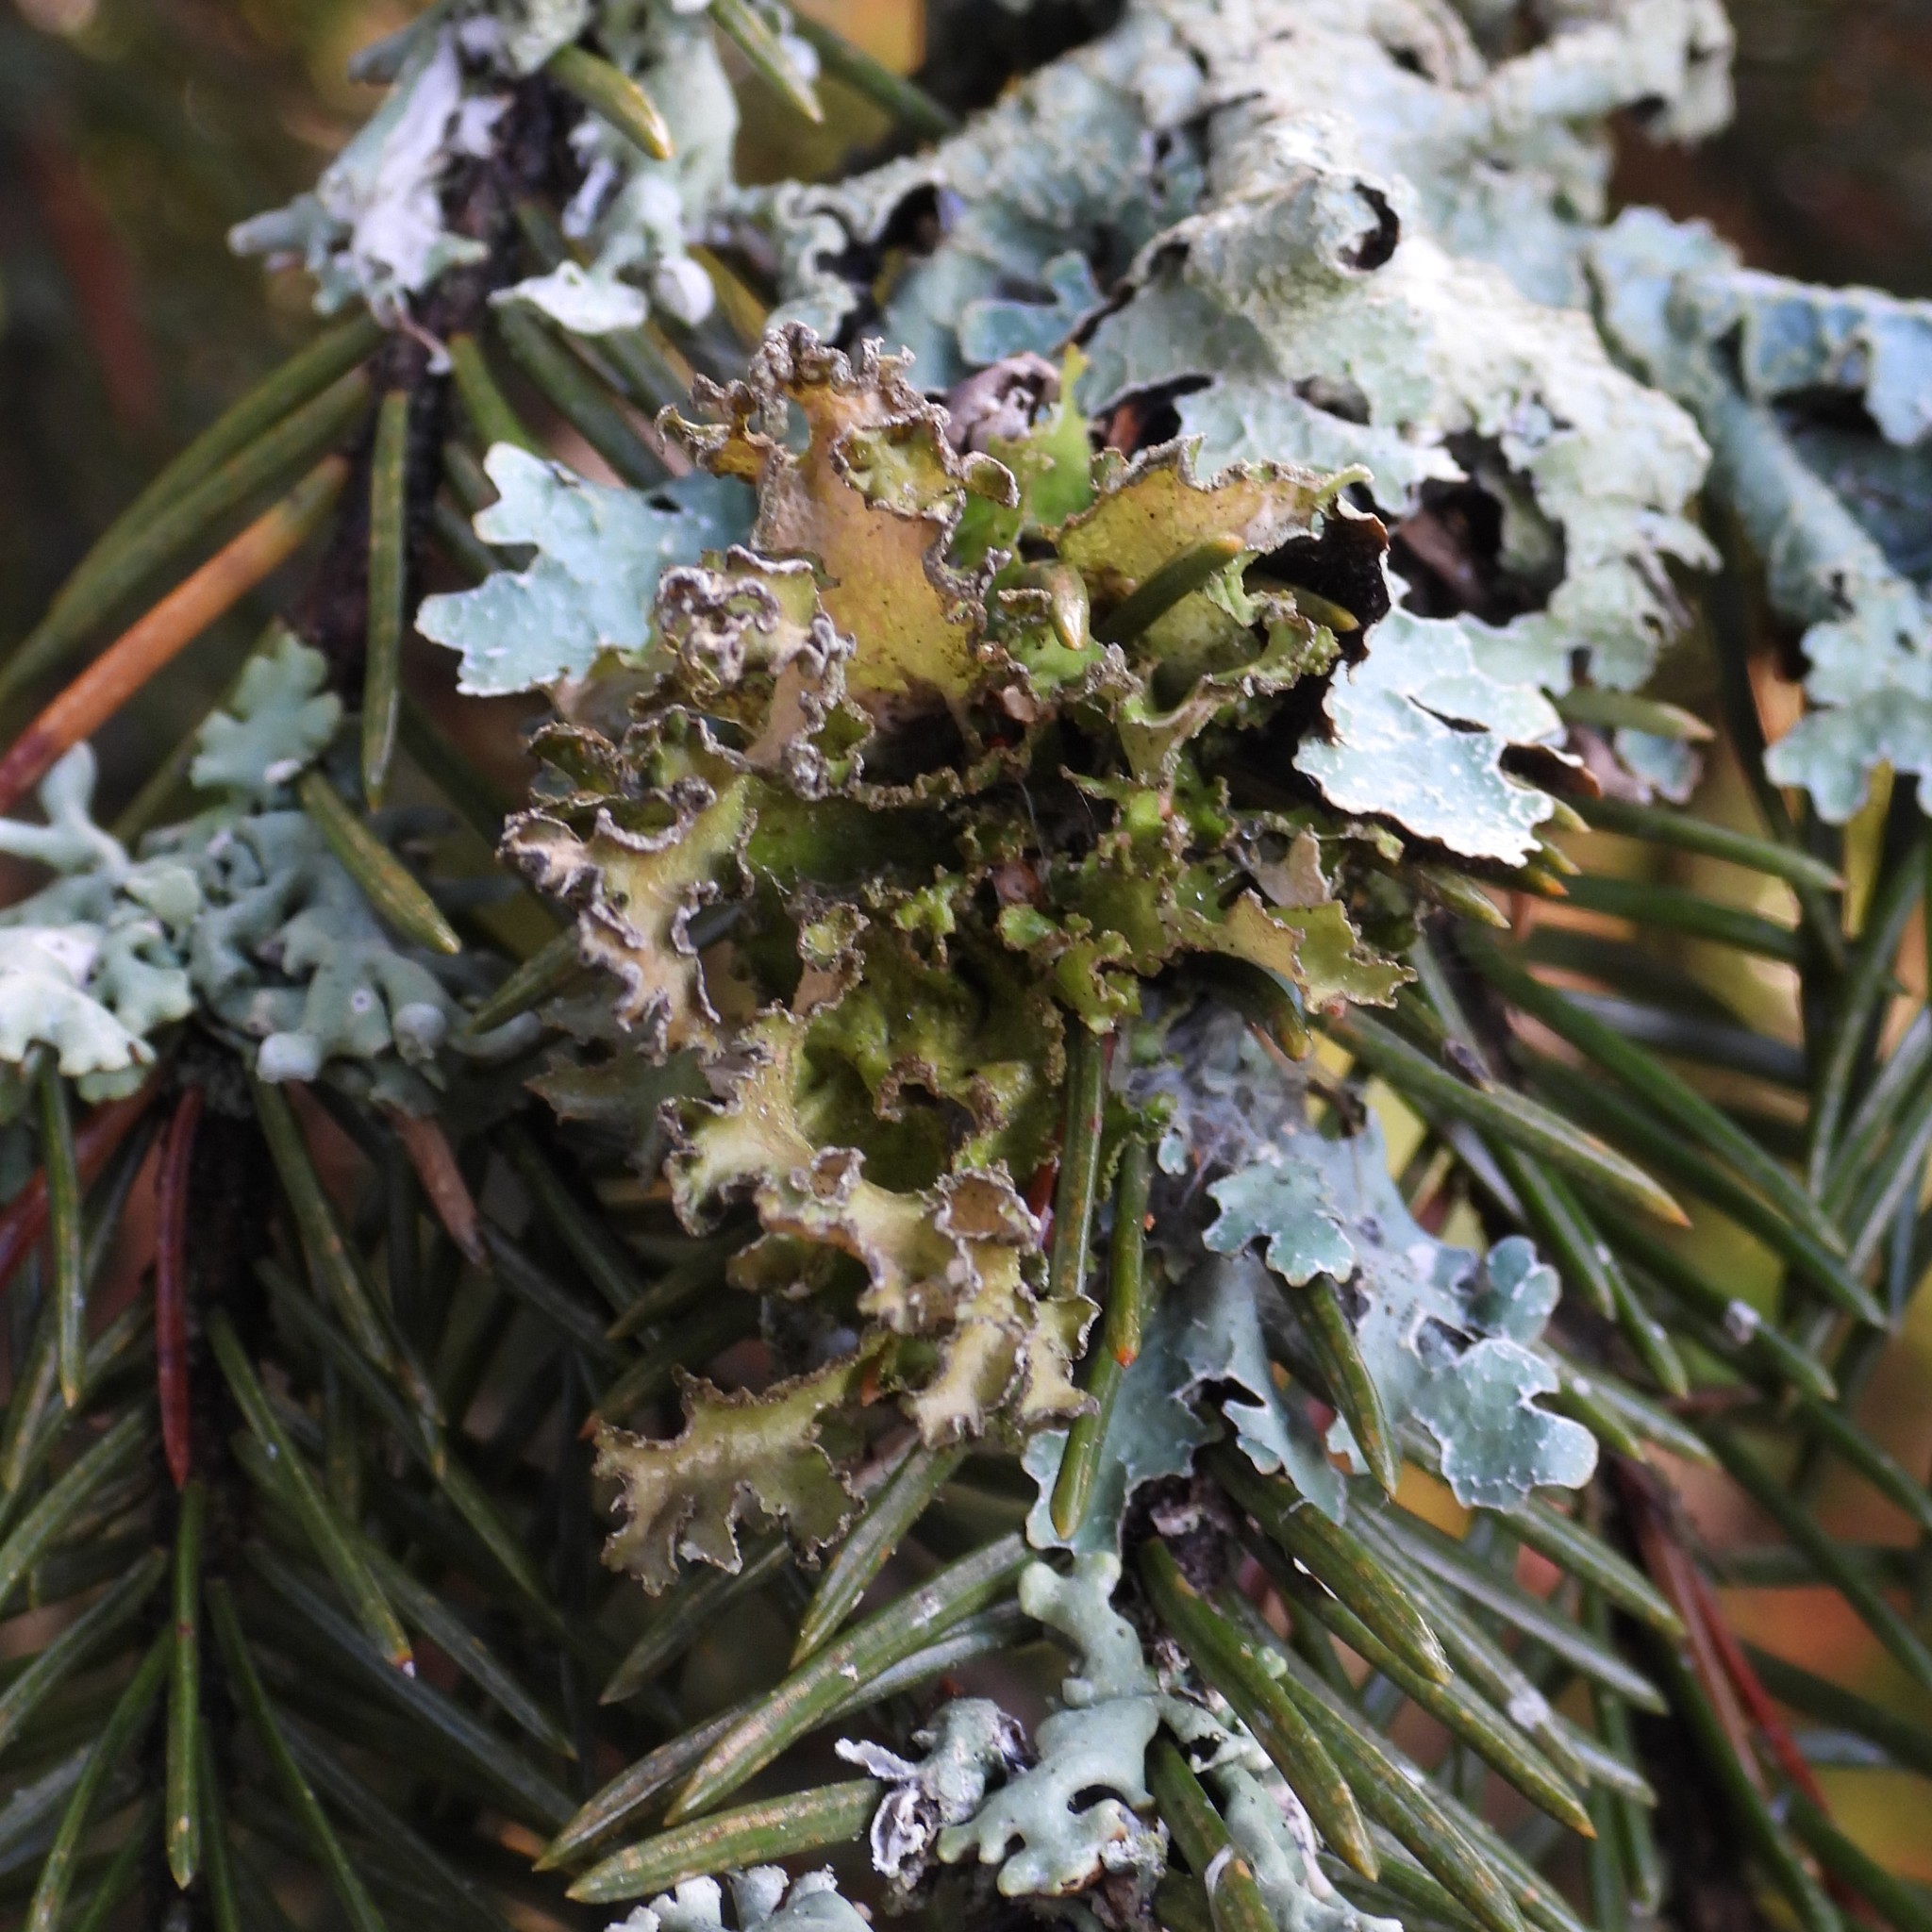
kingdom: Fungi
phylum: Ascomycota
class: Lecanoromycetes
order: Lecanorales
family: Parmeliaceae
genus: Nephromopsis
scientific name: Nephromopsis chlorophylla
